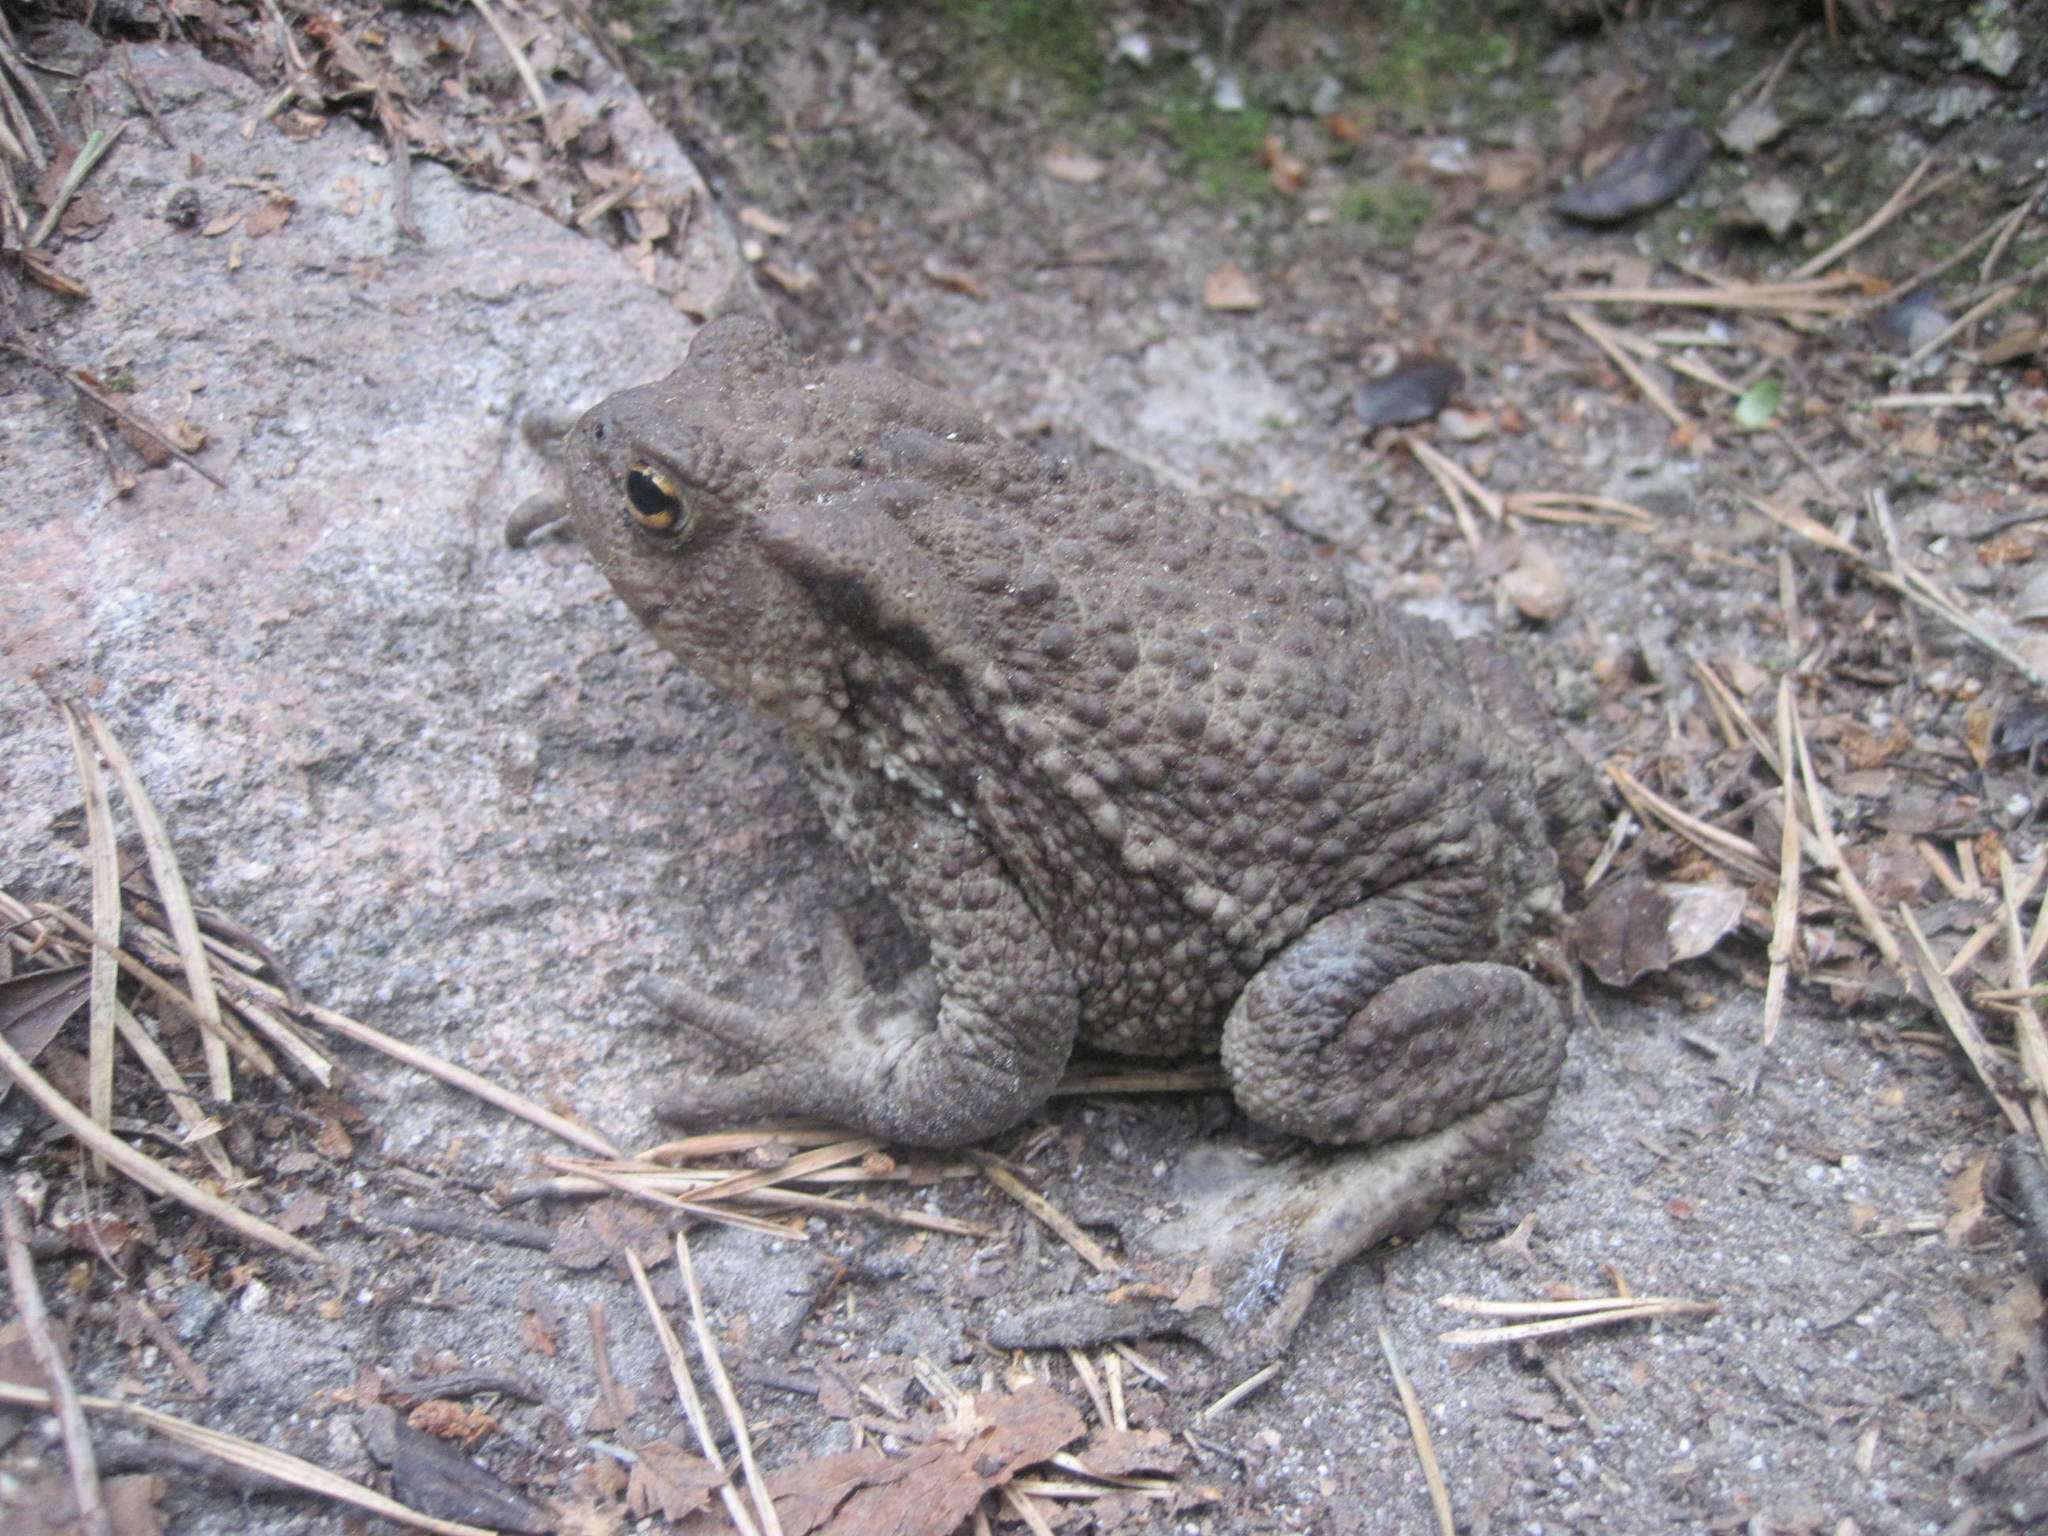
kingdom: Animalia
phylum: Chordata
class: Amphibia
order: Anura
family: Bufonidae
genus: Bufo
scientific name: Bufo bufo
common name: Common toad
